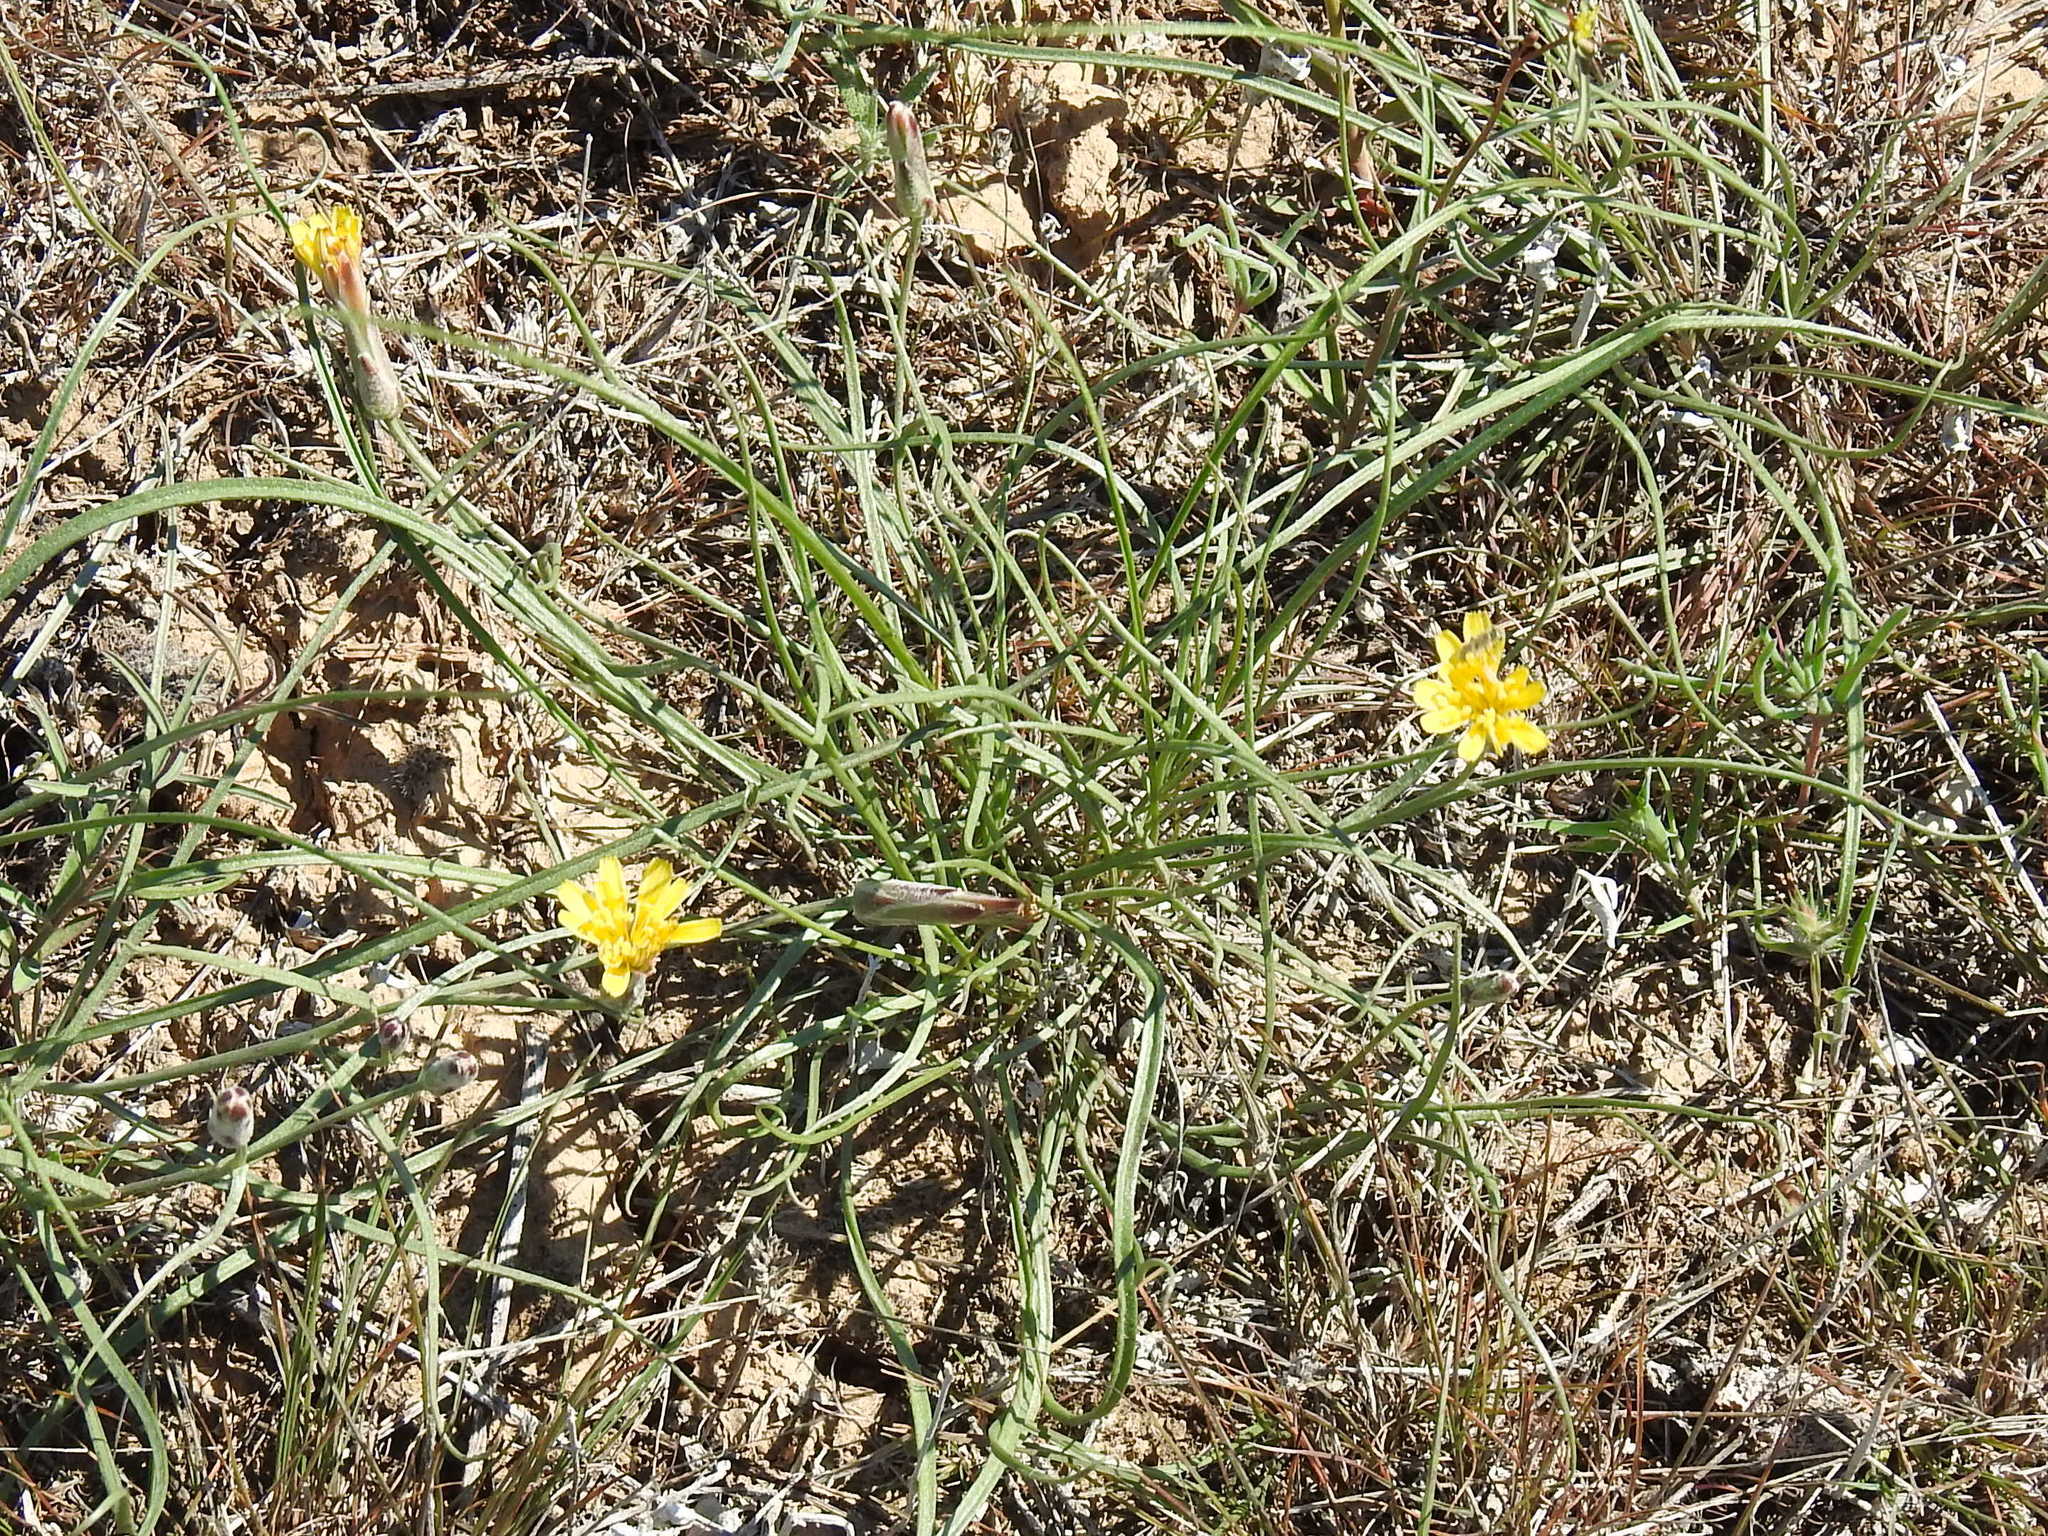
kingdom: Plantae
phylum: Tracheophyta
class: Magnoliopsida
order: Asterales
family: Asteraceae
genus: Takhtajaniantha
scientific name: Takhtajaniantha pusilla
